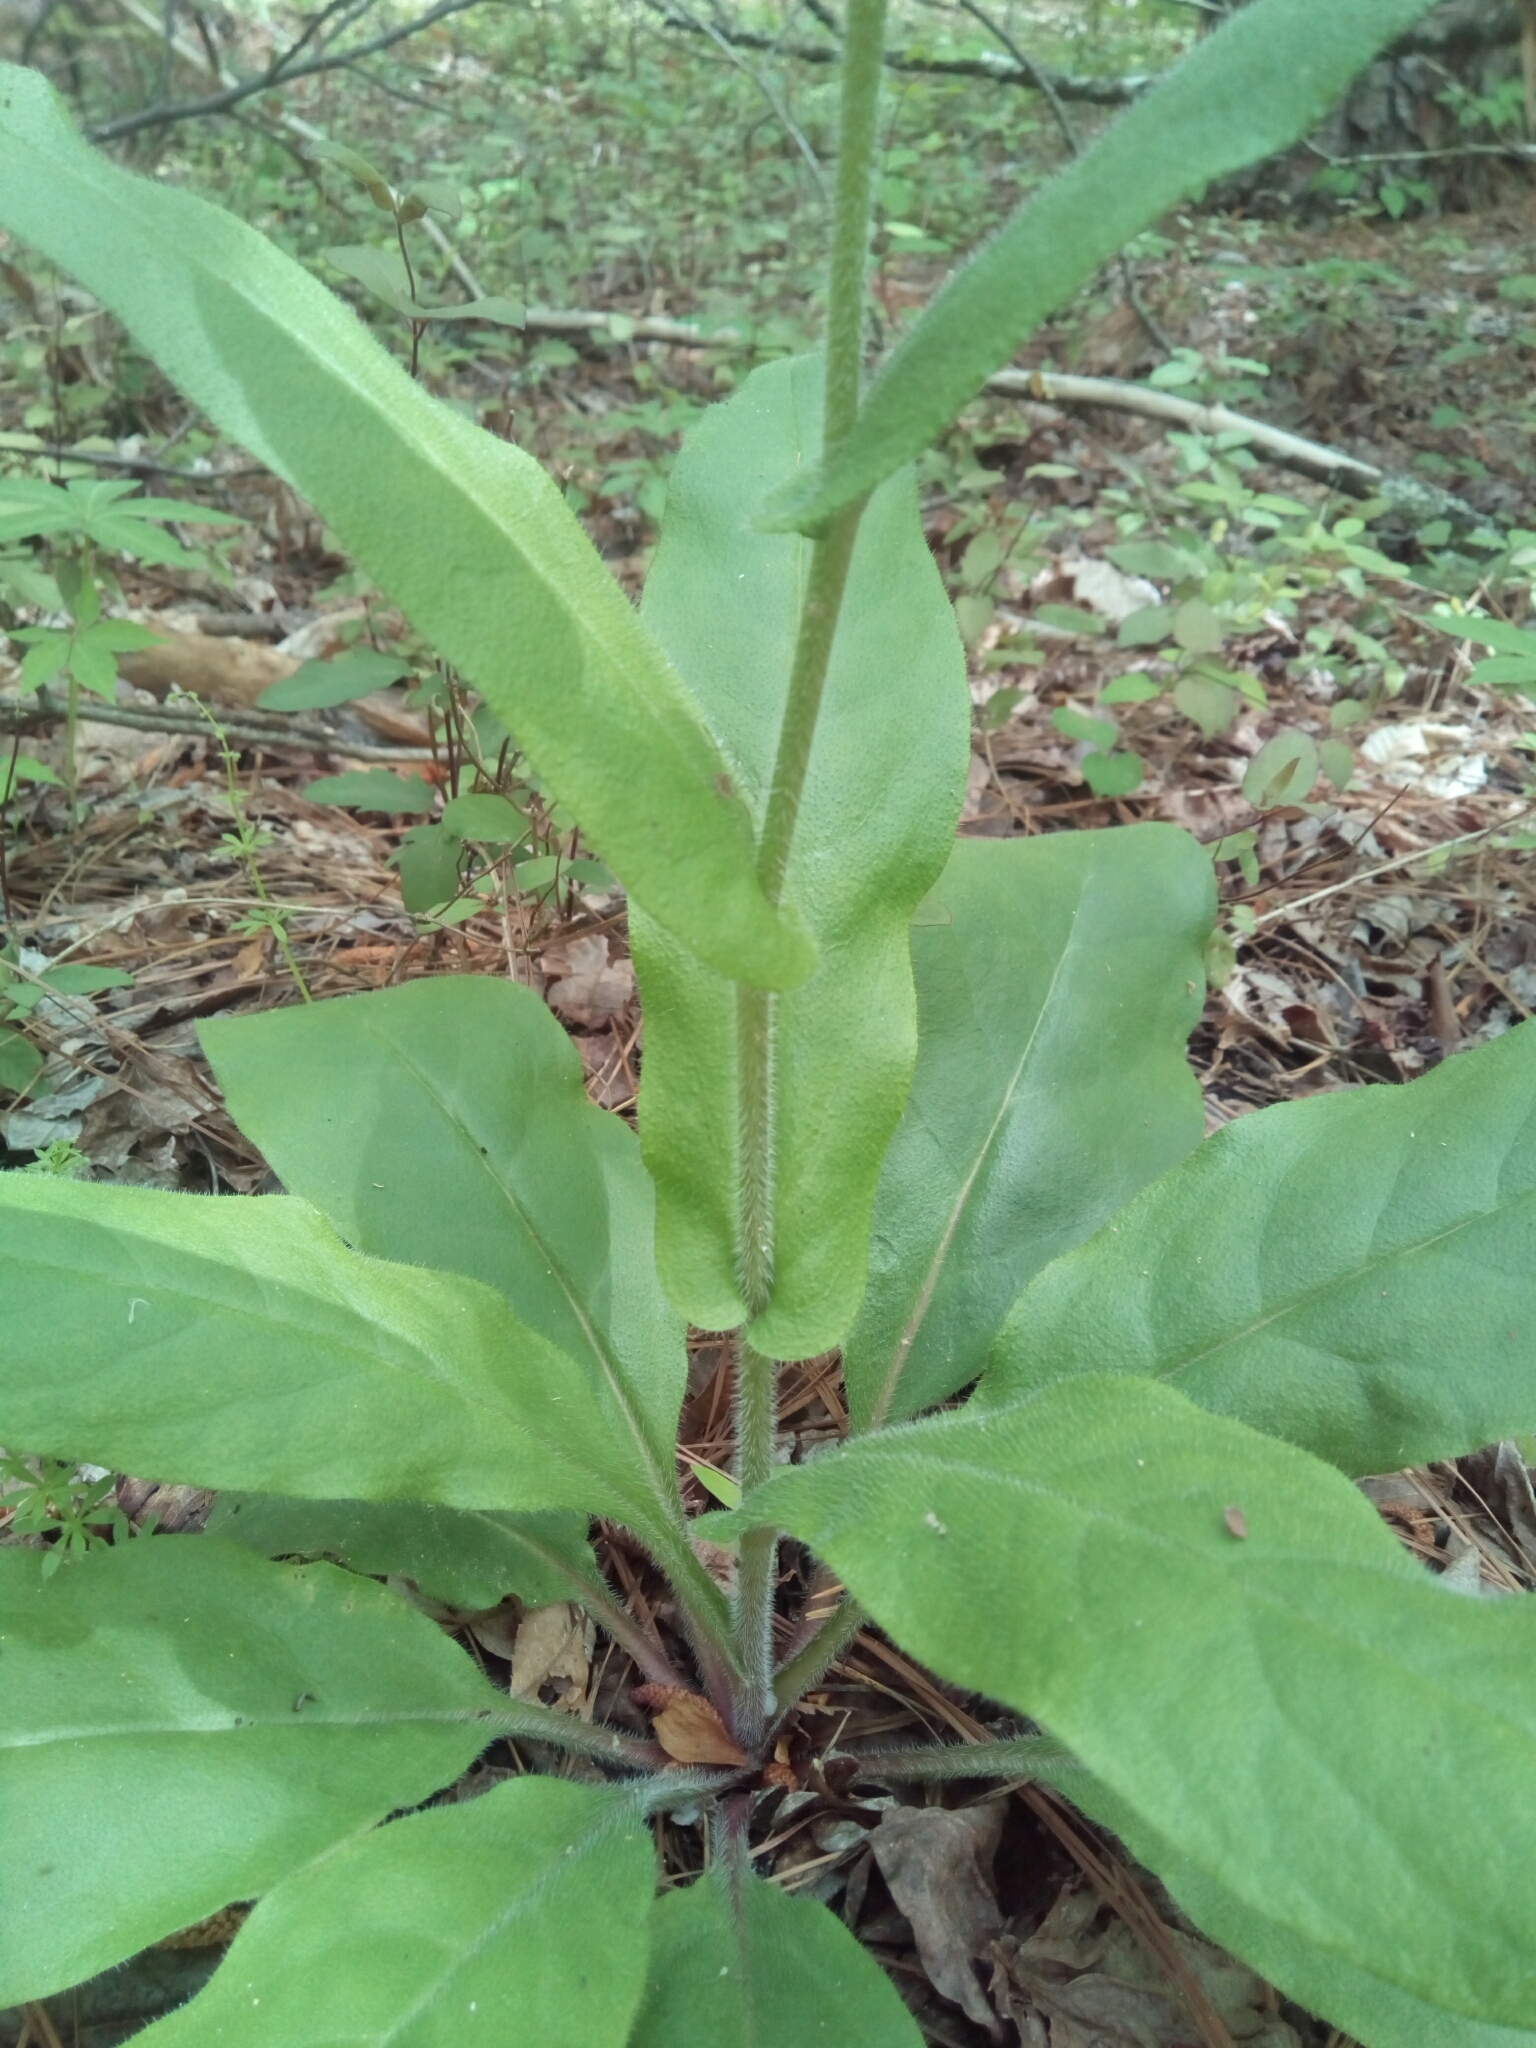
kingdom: Plantae
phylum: Tracheophyta
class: Magnoliopsida
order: Boraginales
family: Boraginaceae
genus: Andersonglossum
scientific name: Andersonglossum virginianum
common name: Wild comfrey
